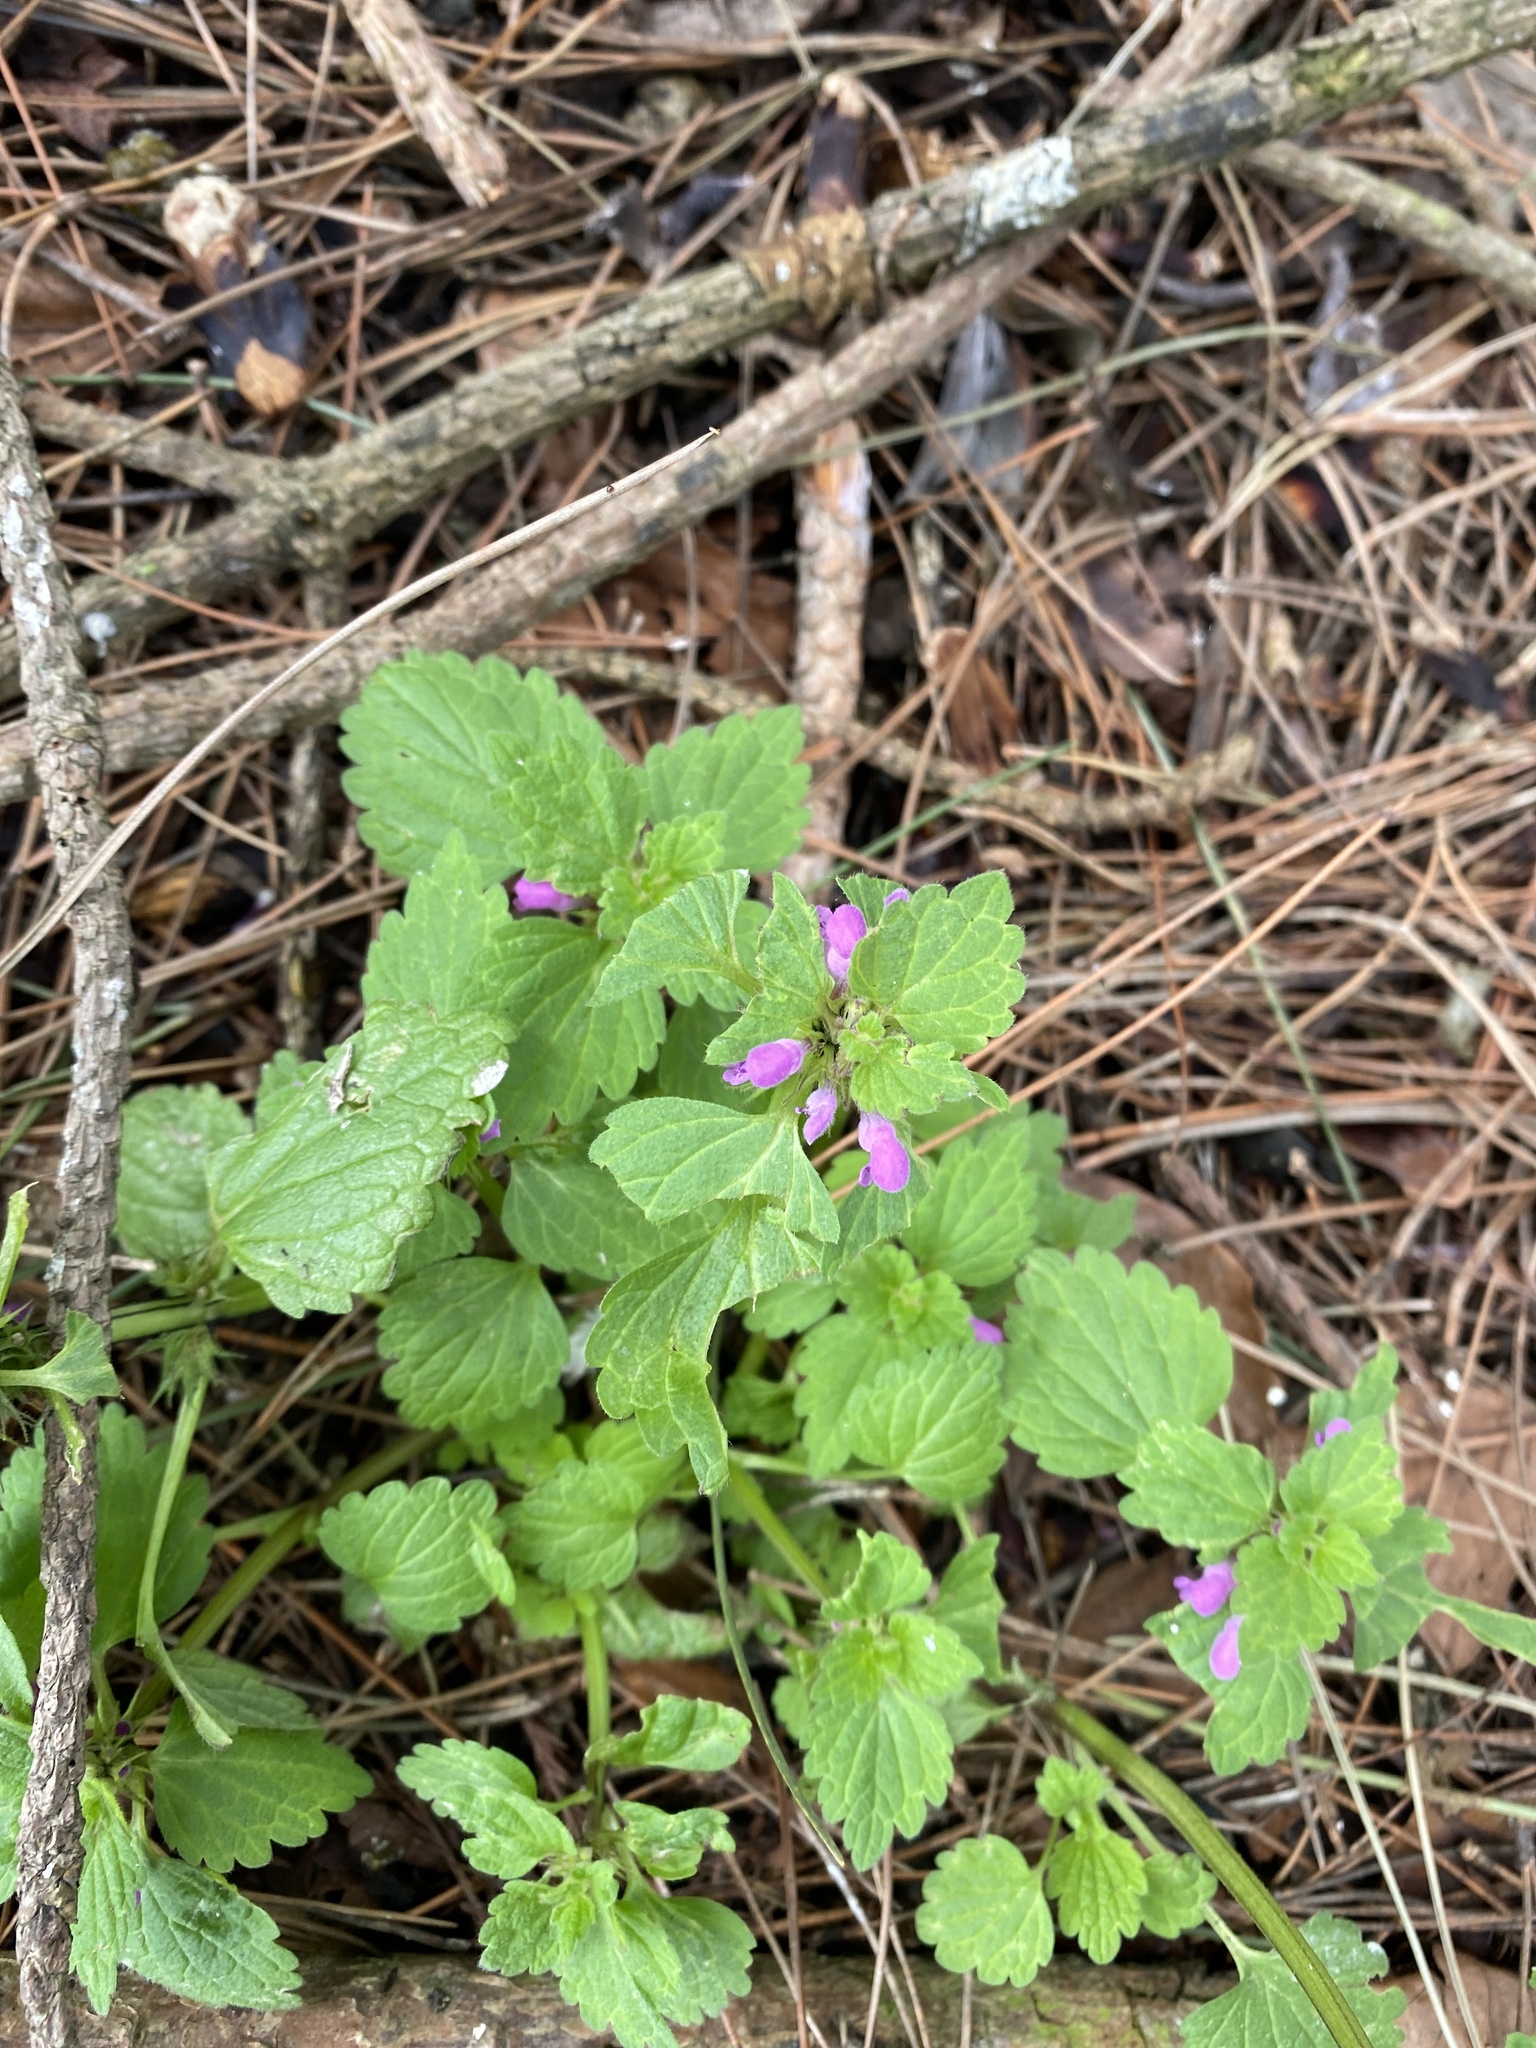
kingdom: Plantae
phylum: Tracheophyta
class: Magnoliopsida
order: Lamiales
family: Lamiaceae
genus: Lamium
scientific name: Lamium purpureum
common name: Red dead-nettle
